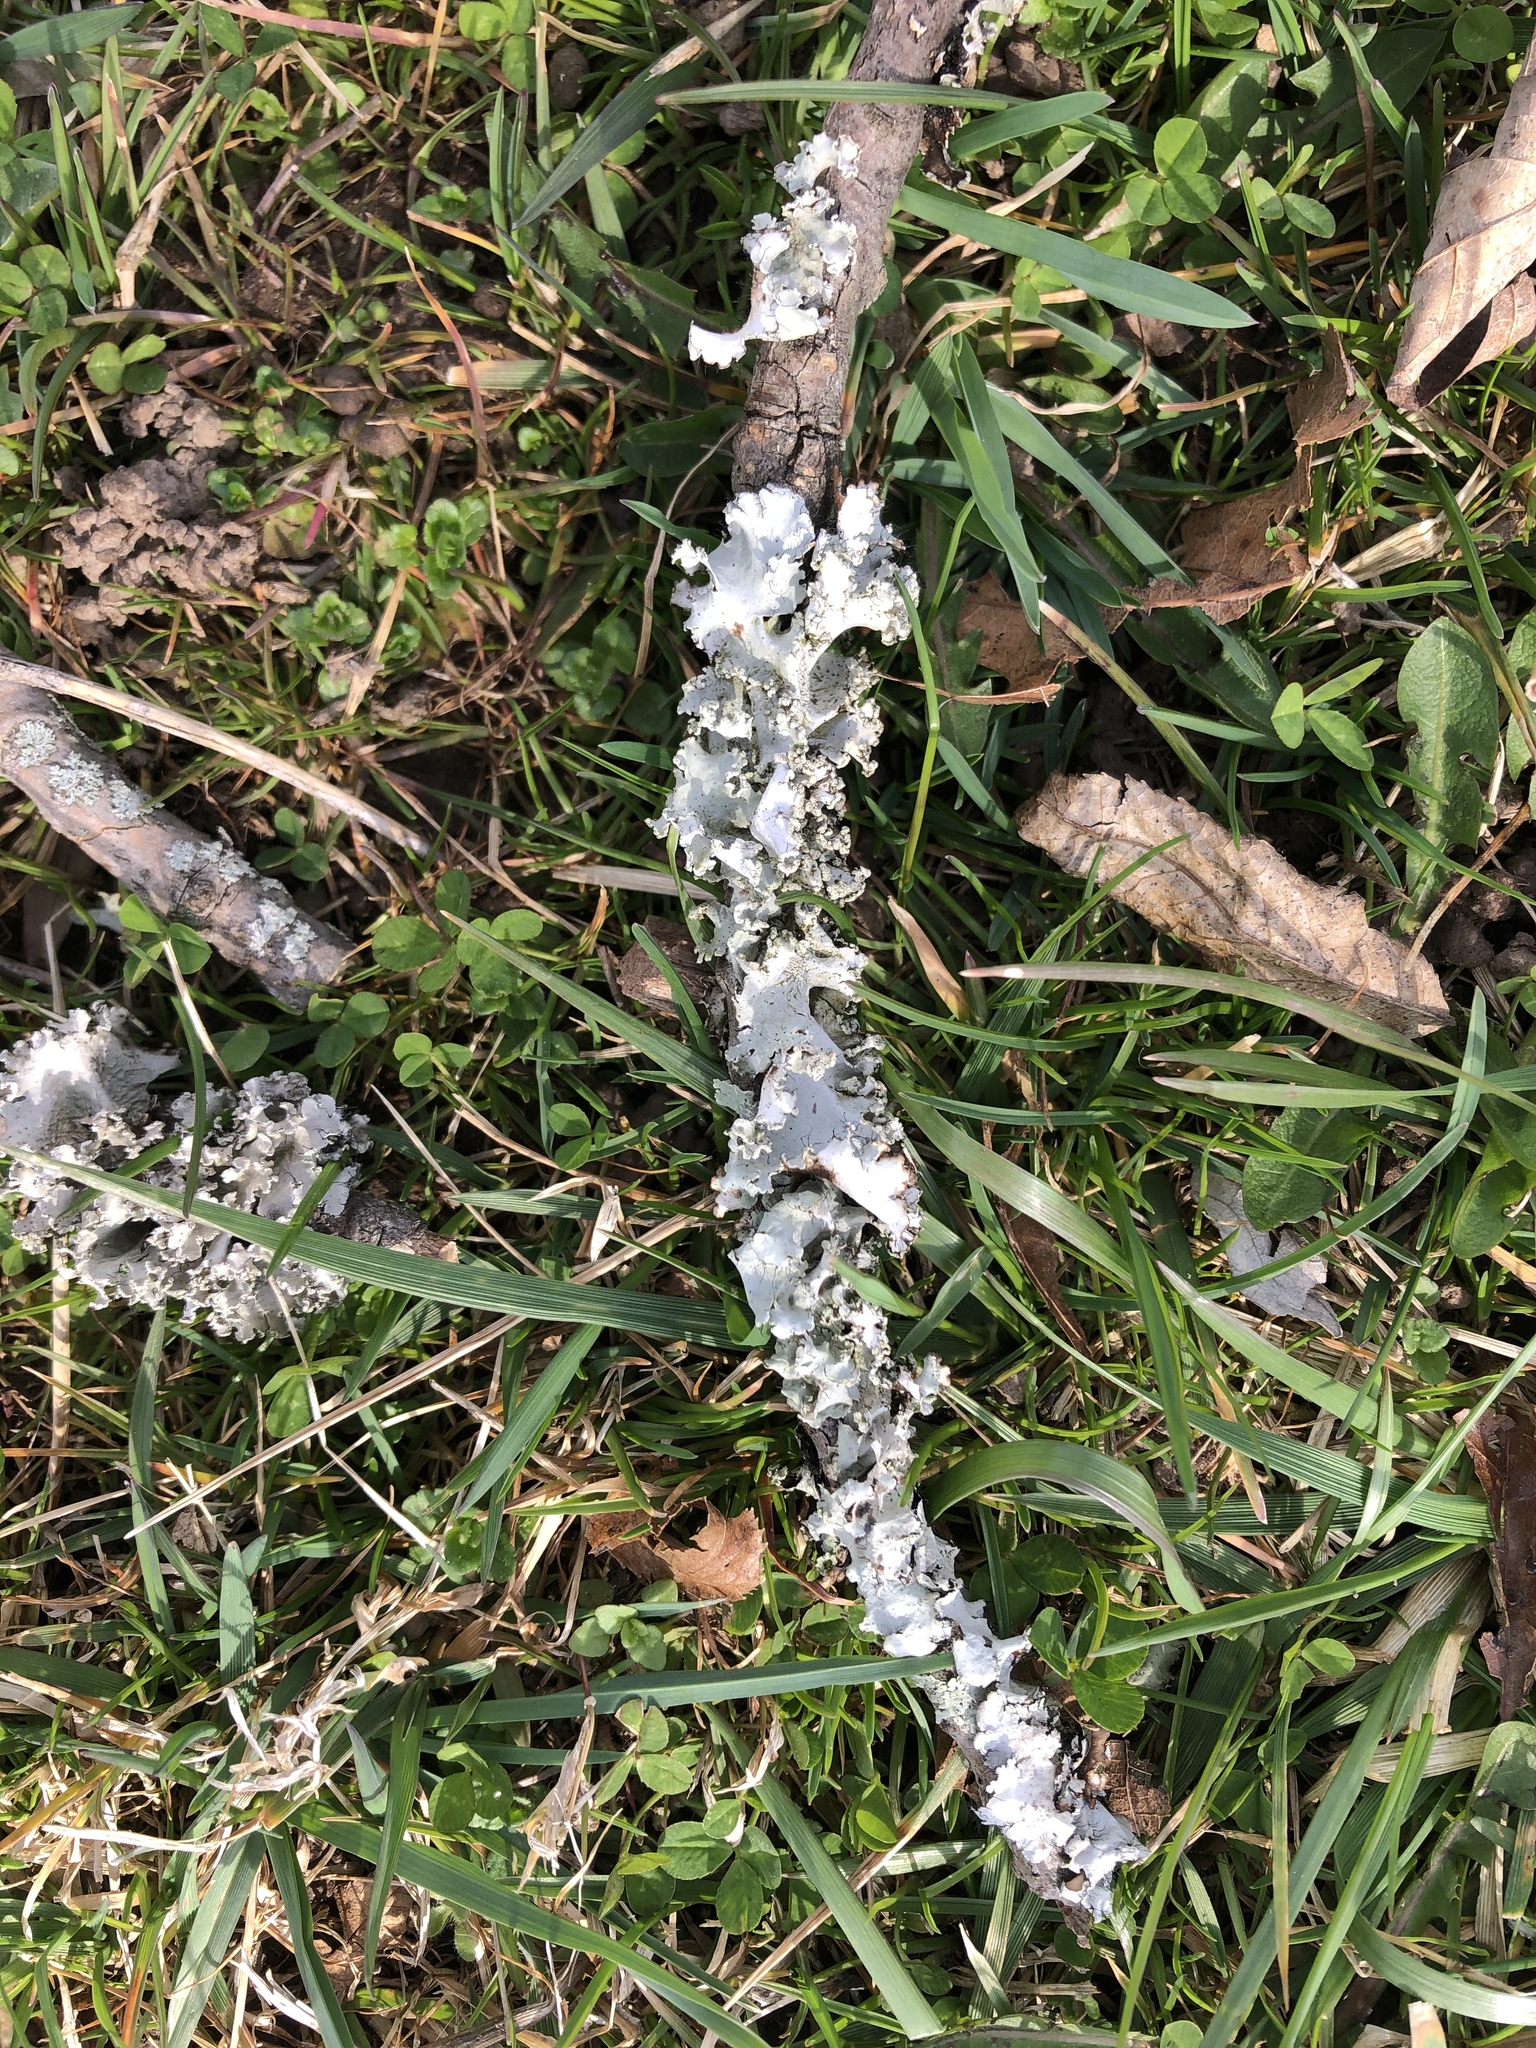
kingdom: Fungi
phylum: Ascomycota
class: Lecanoromycetes
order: Lecanorales
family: Parmeliaceae
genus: Parmotrema
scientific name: Parmotrema hypotropum
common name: Powdered ruffle lichen
